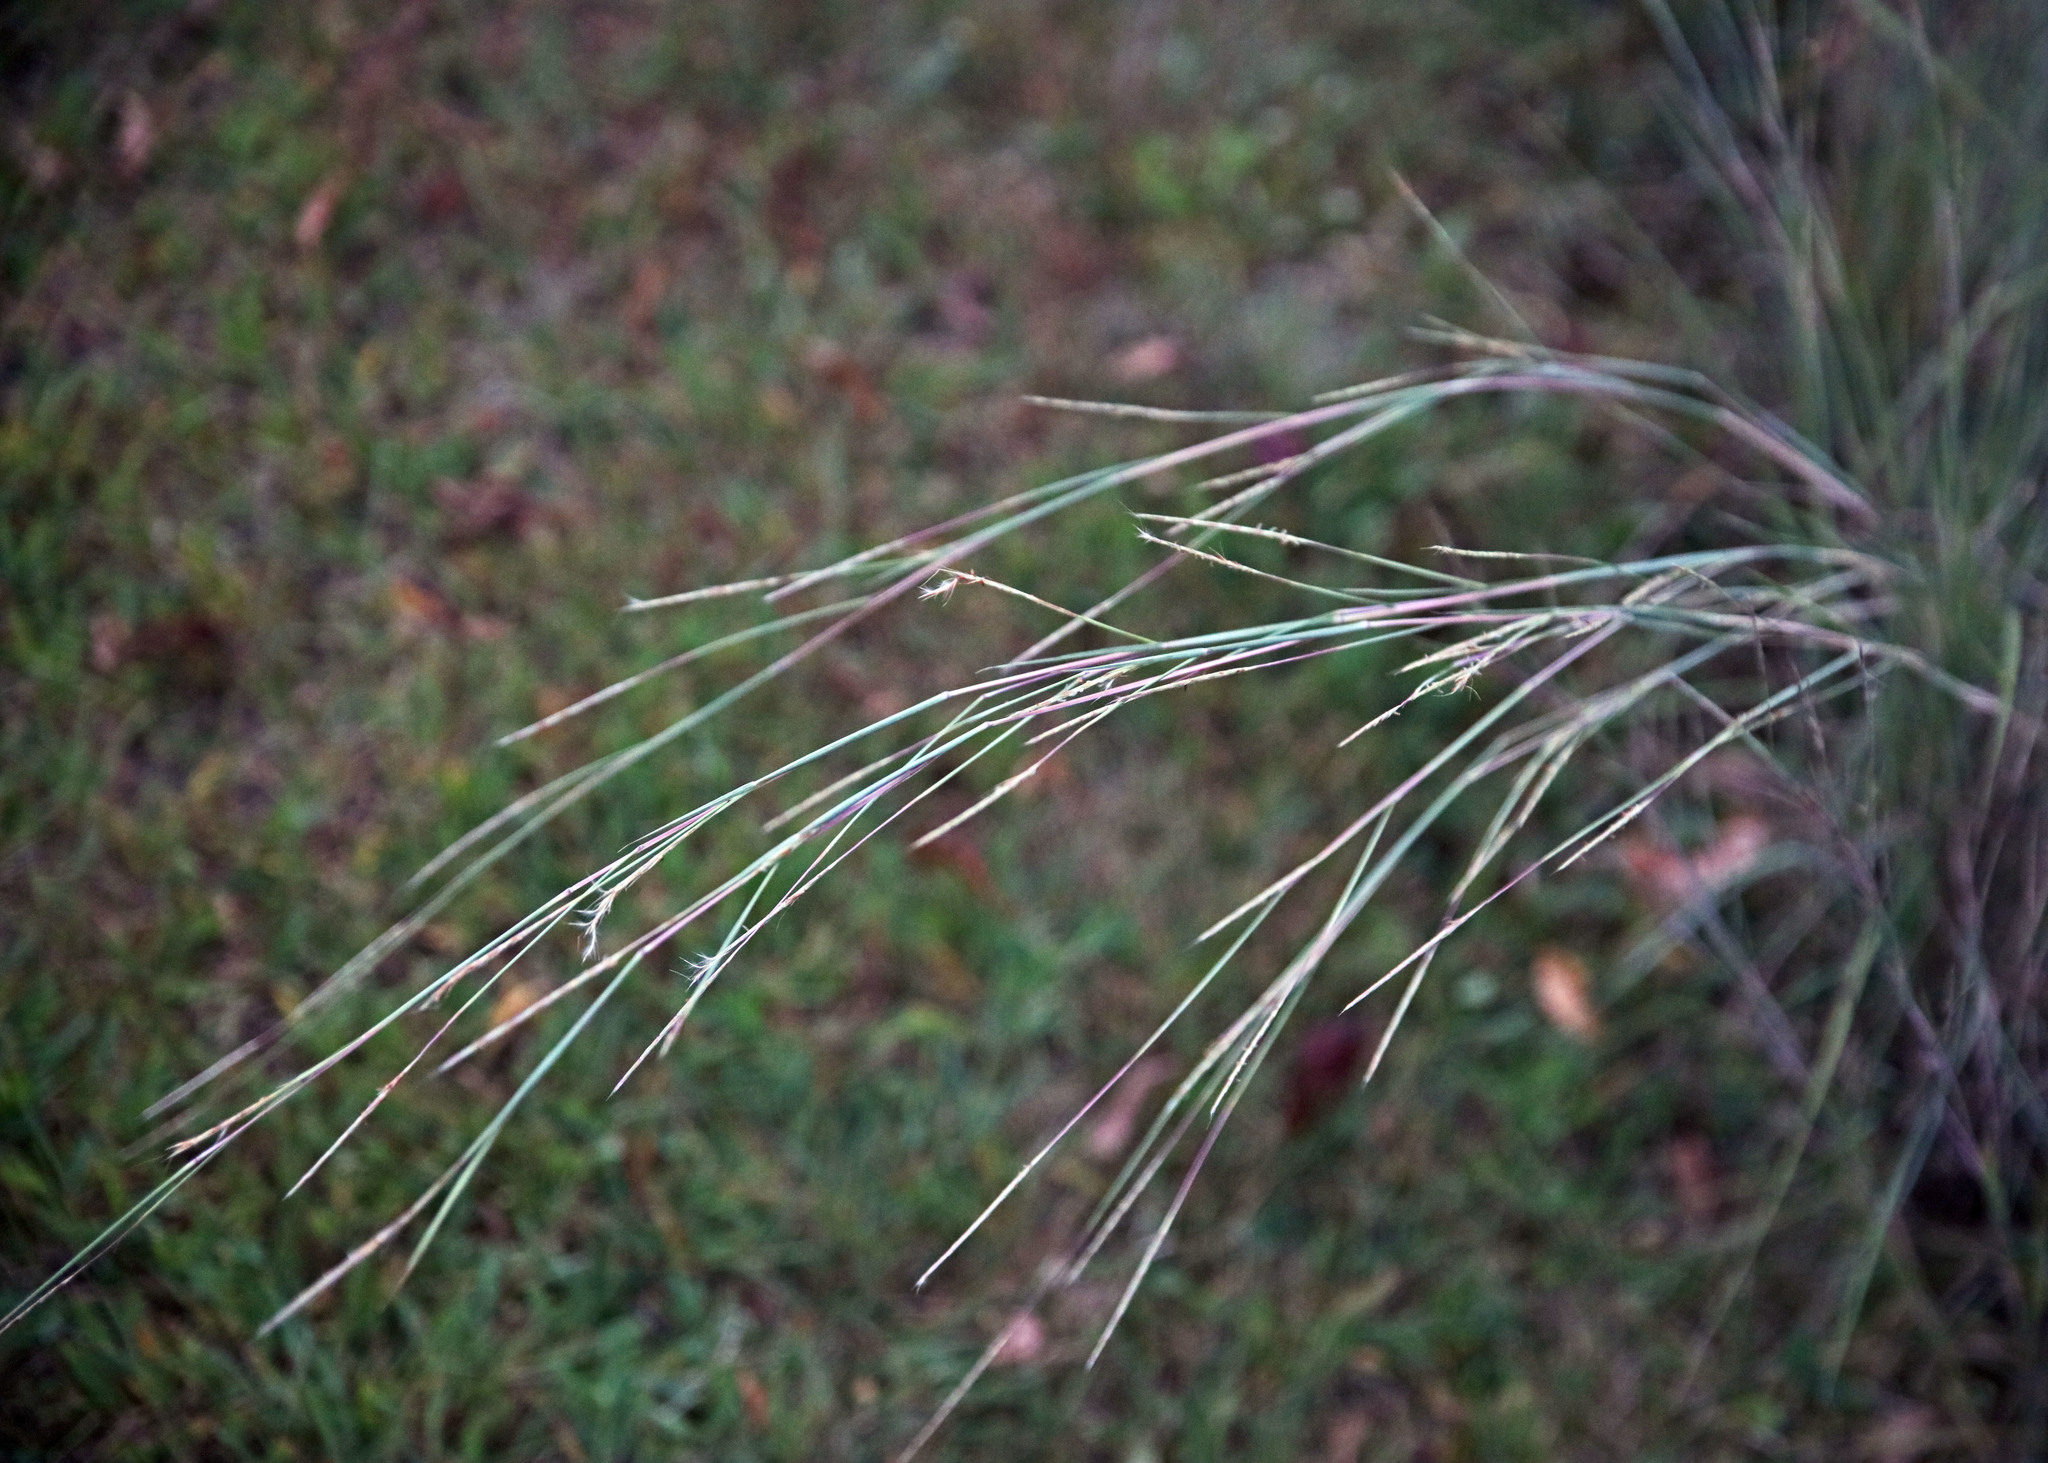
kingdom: Plantae
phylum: Tracheophyta
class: Liliopsida
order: Poales
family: Poaceae
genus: Schizachyrium
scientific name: Schizachyrium scoparium
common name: Little bluestem
